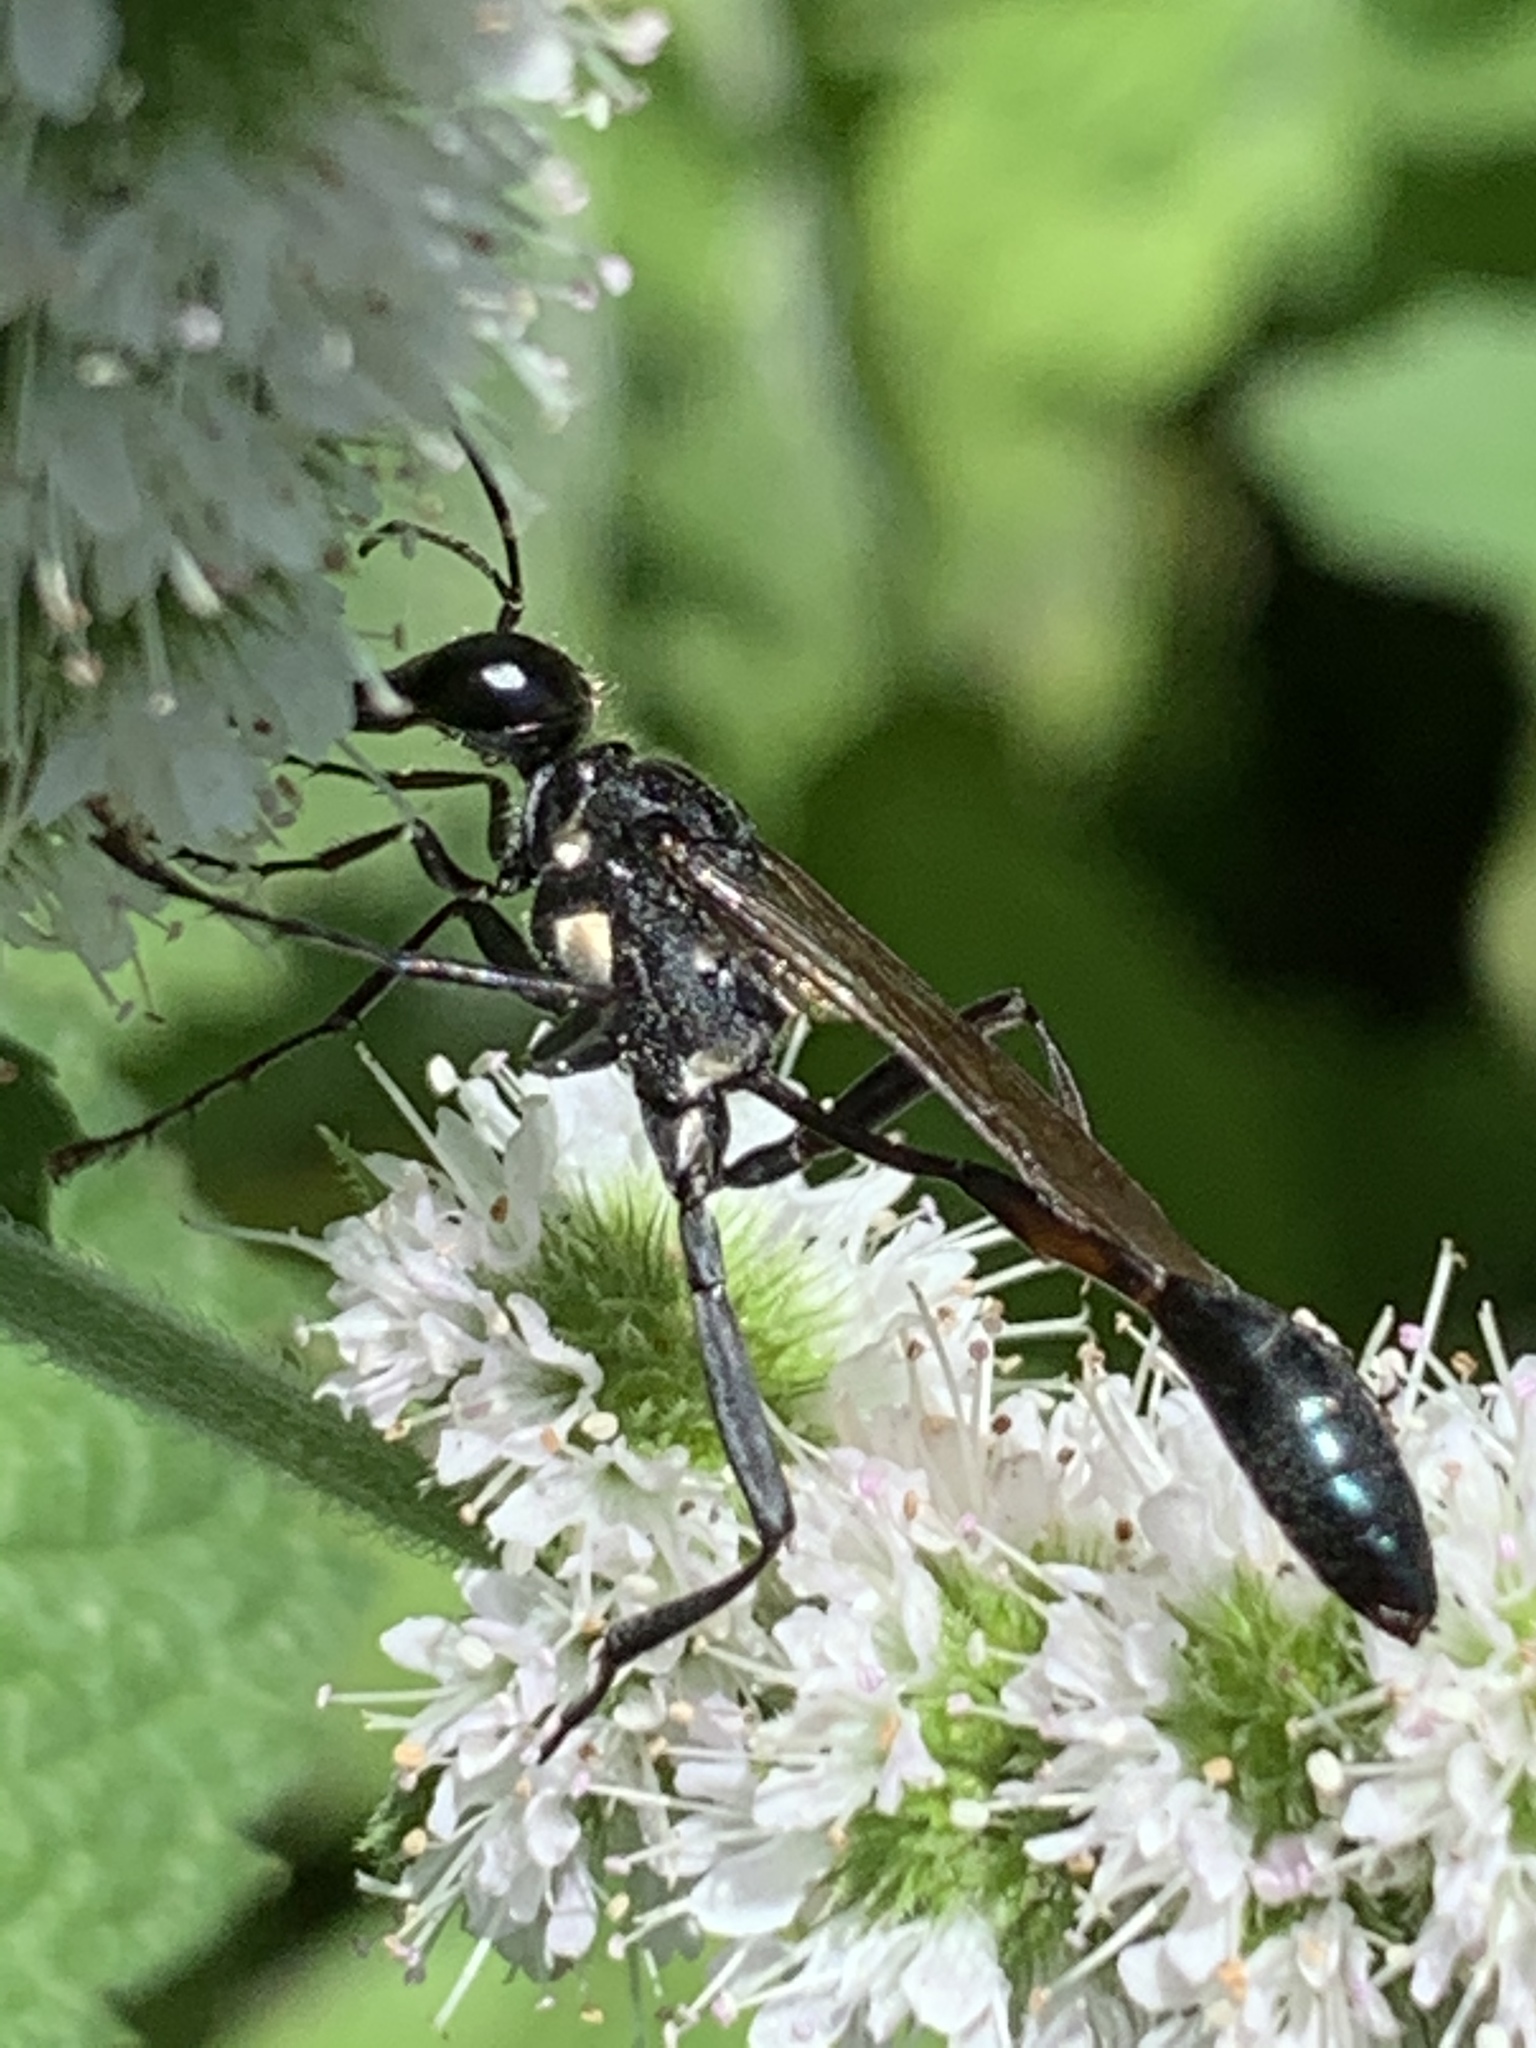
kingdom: Animalia
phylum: Arthropoda
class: Insecta
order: Hymenoptera
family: Sphecidae
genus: Eremnophila
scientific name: Eremnophila aureonotata
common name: Gold-marked thread-waisted wasp
